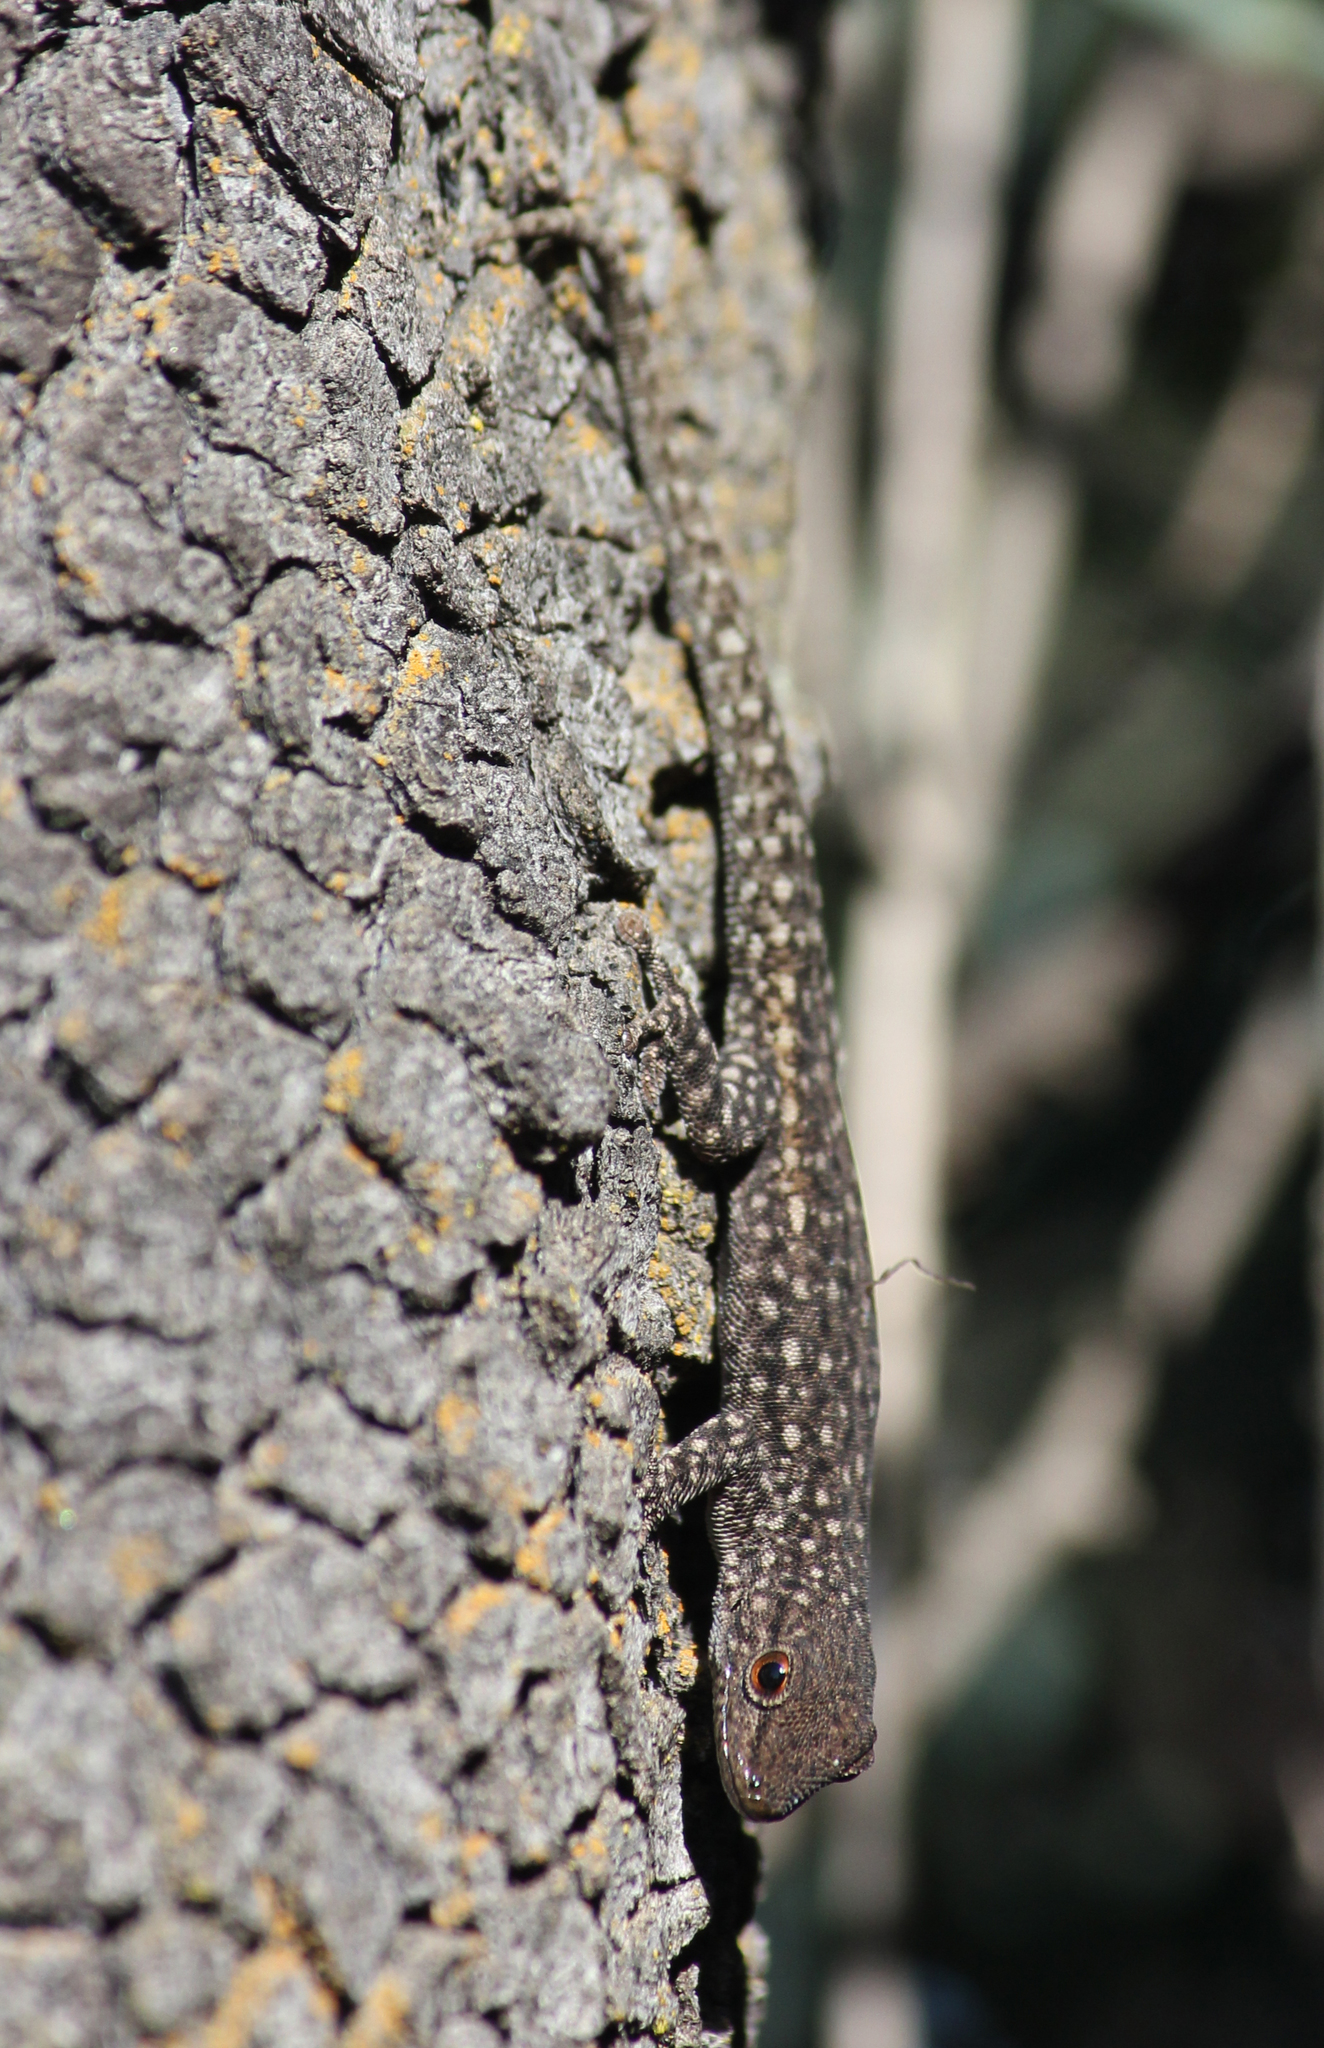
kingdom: Animalia
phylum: Chordata
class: Squamata
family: Gekkonidae
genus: Rhoptropella
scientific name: Rhoptropella ocellata
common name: Namaqua day gecko
